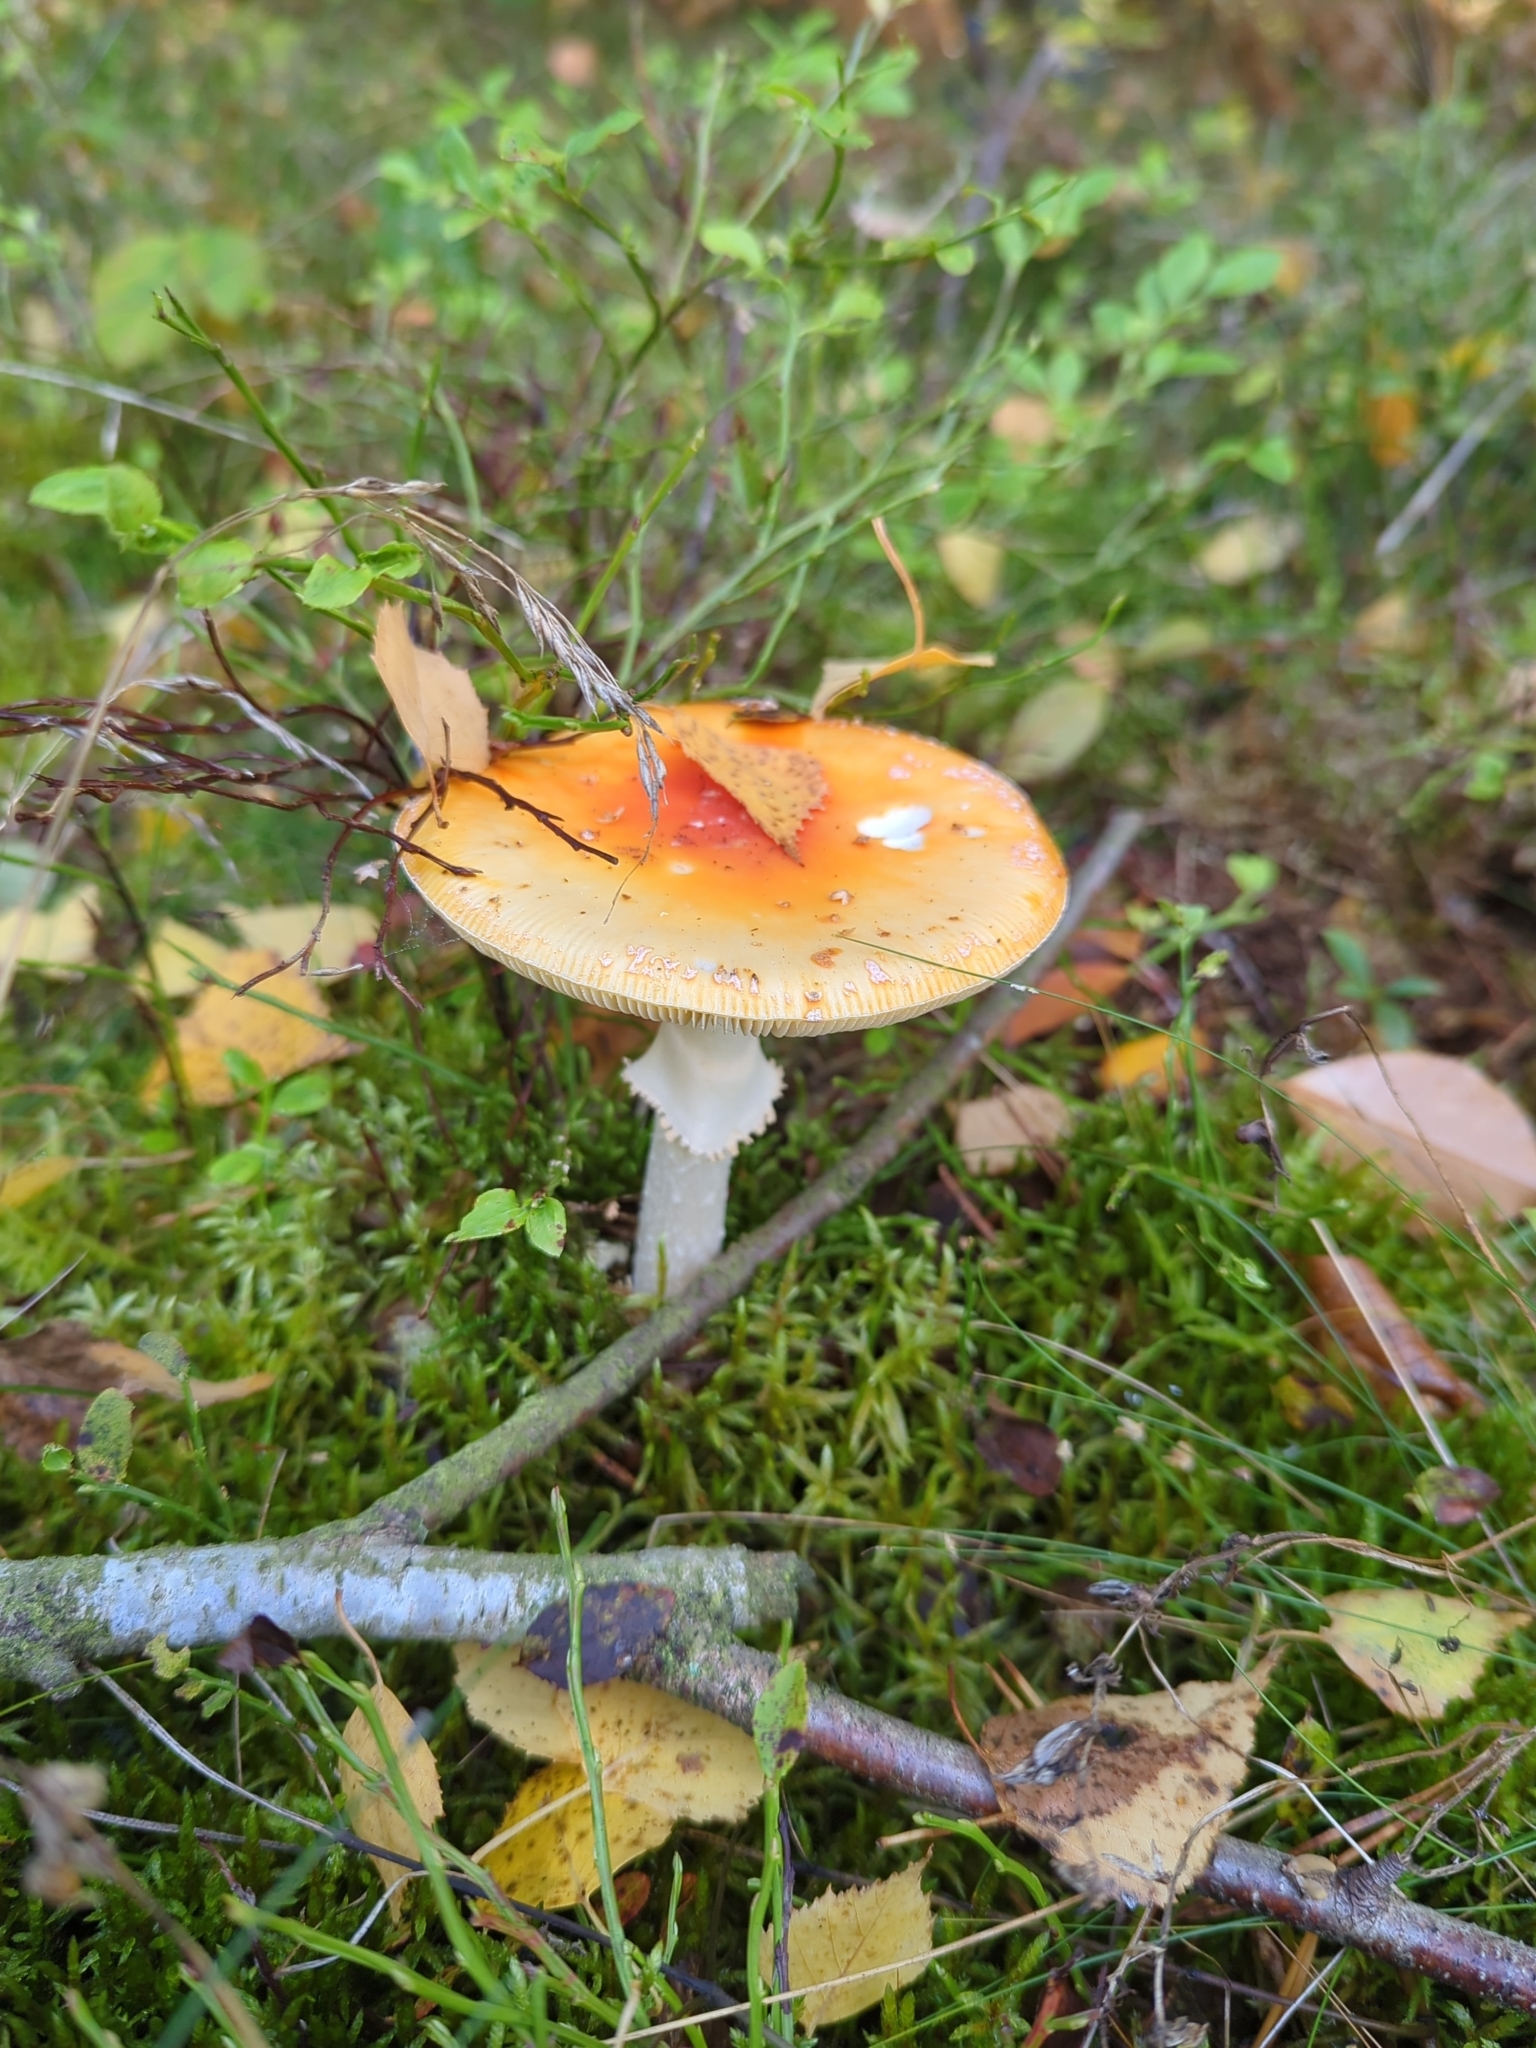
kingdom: Fungi
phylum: Basidiomycota
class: Agaricomycetes
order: Agaricales
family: Amanitaceae
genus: Amanita
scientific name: Amanita muscaria
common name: Fly agaric
